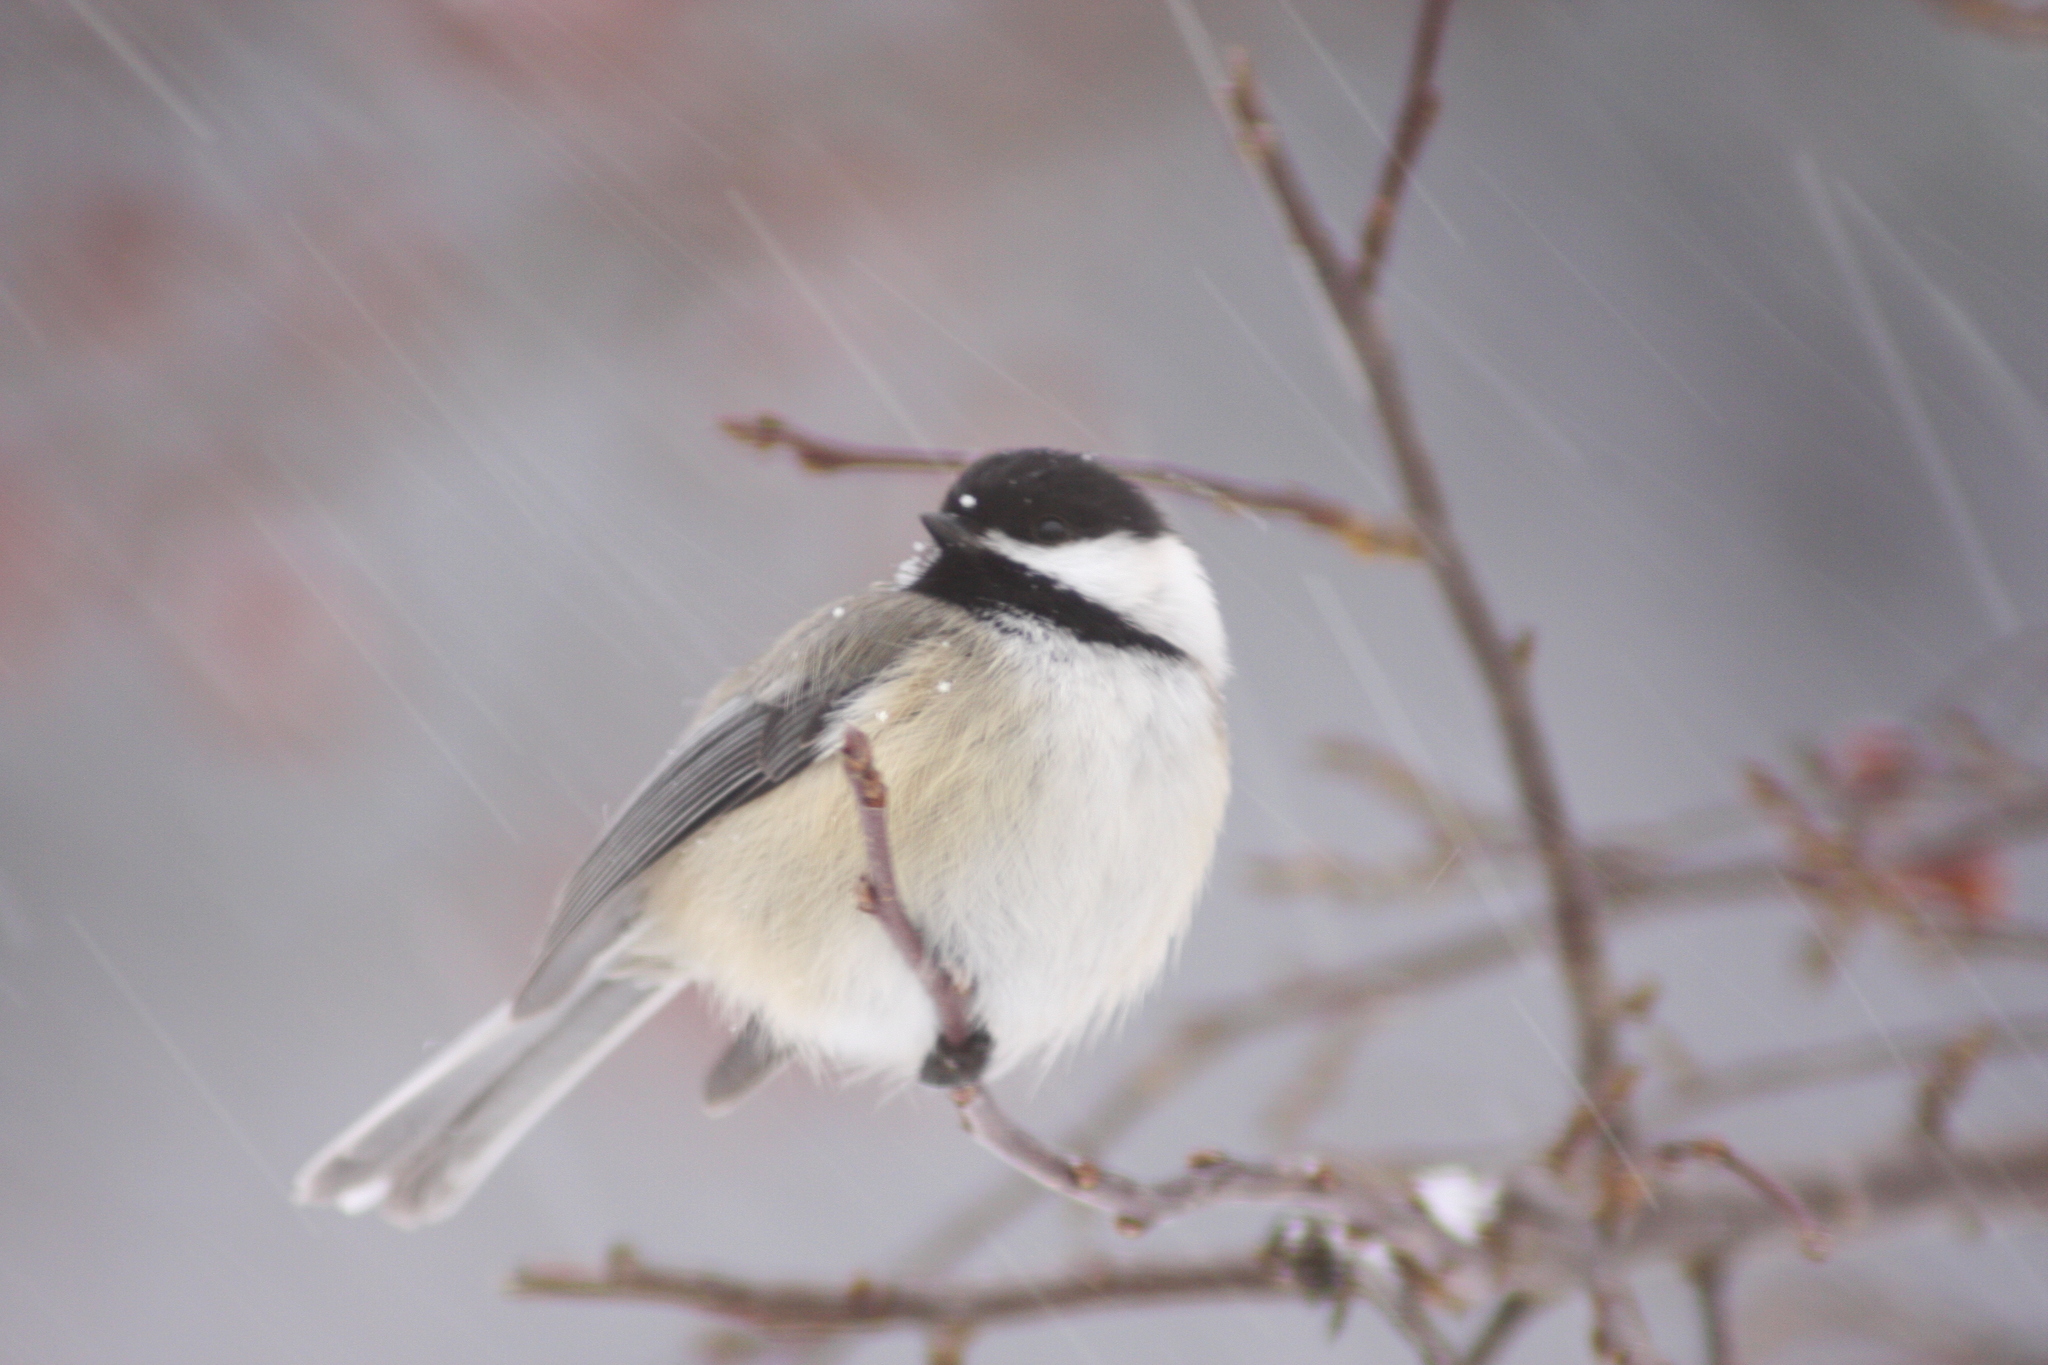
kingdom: Animalia
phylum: Chordata
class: Aves
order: Passeriformes
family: Paridae
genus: Poecile
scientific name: Poecile atricapillus
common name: Black-capped chickadee
